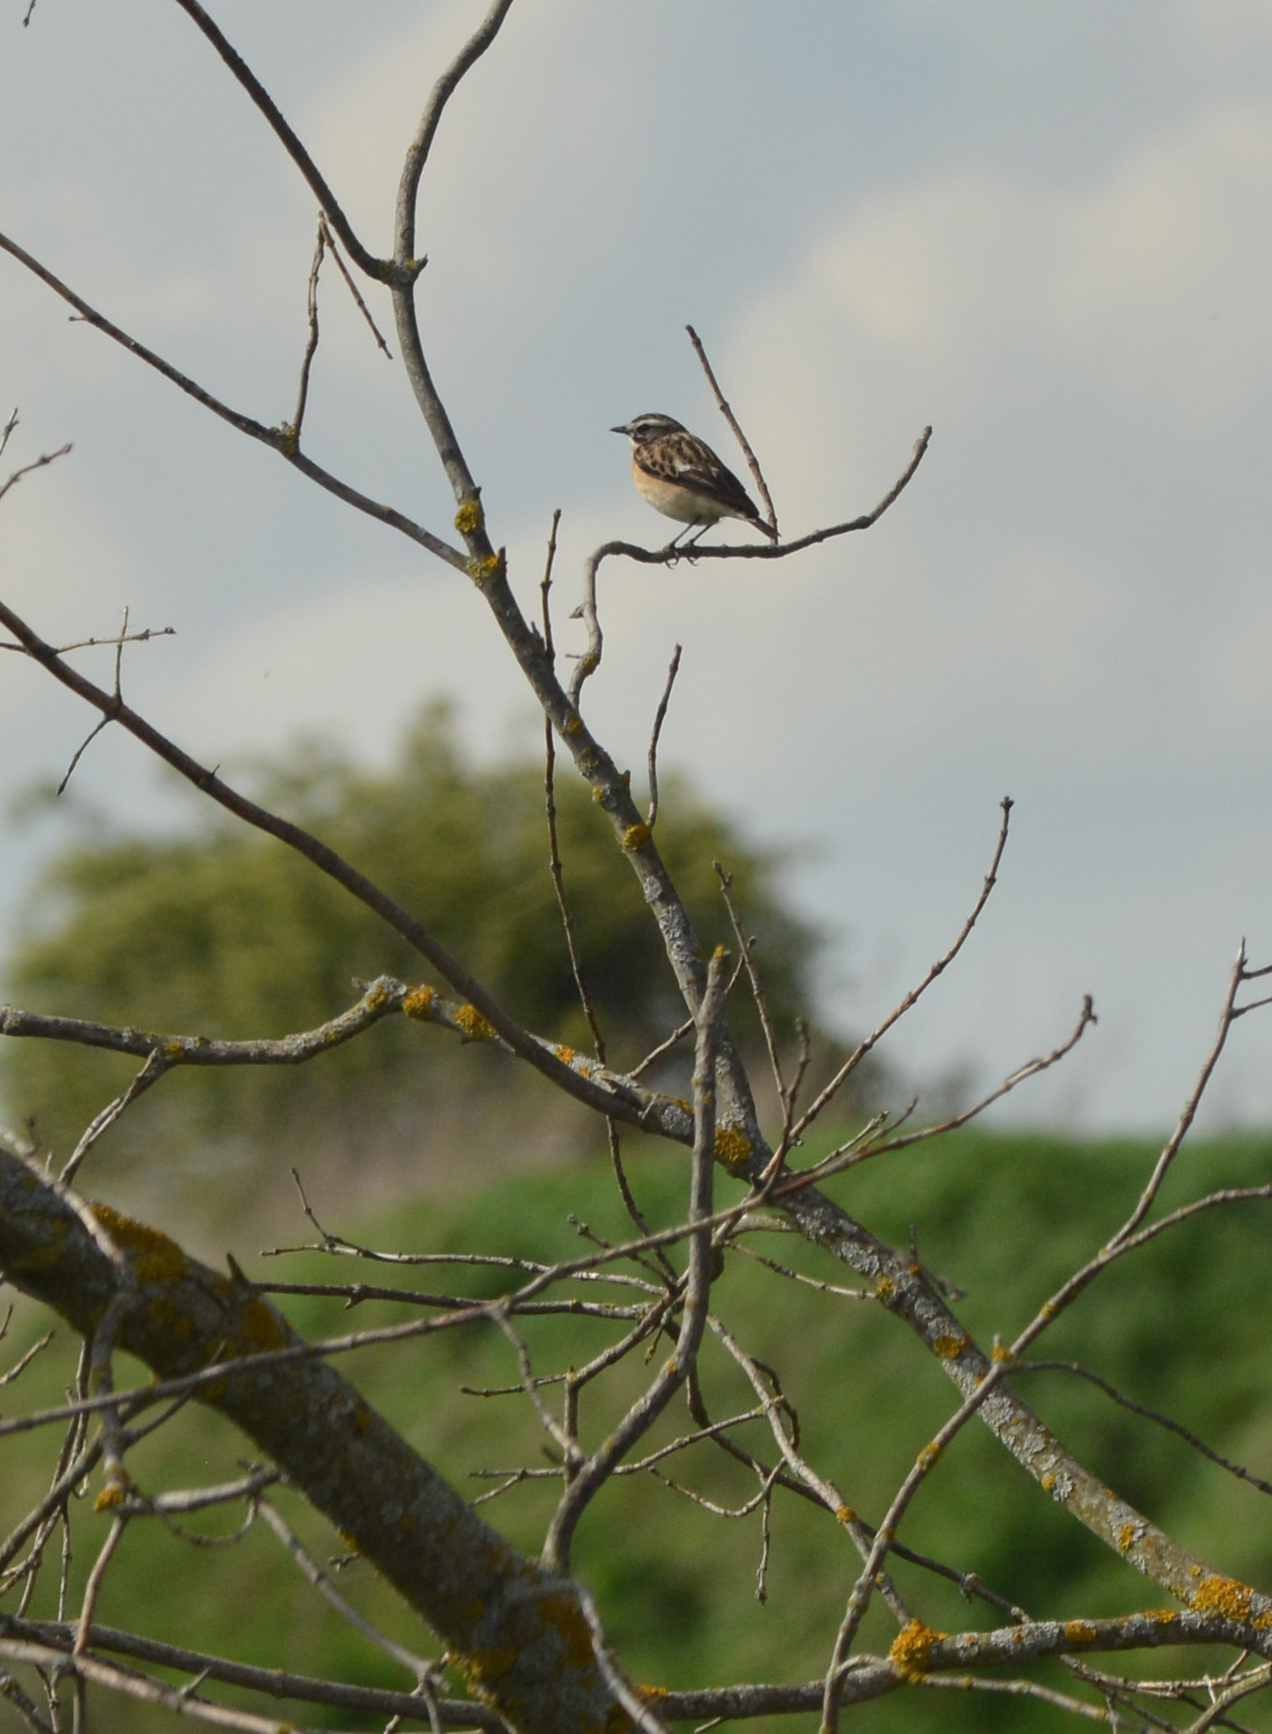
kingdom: Animalia
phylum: Chordata
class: Aves
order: Passeriformes
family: Muscicapidae
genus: Saxicola
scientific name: Saxicola rubetra
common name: Whinchat
